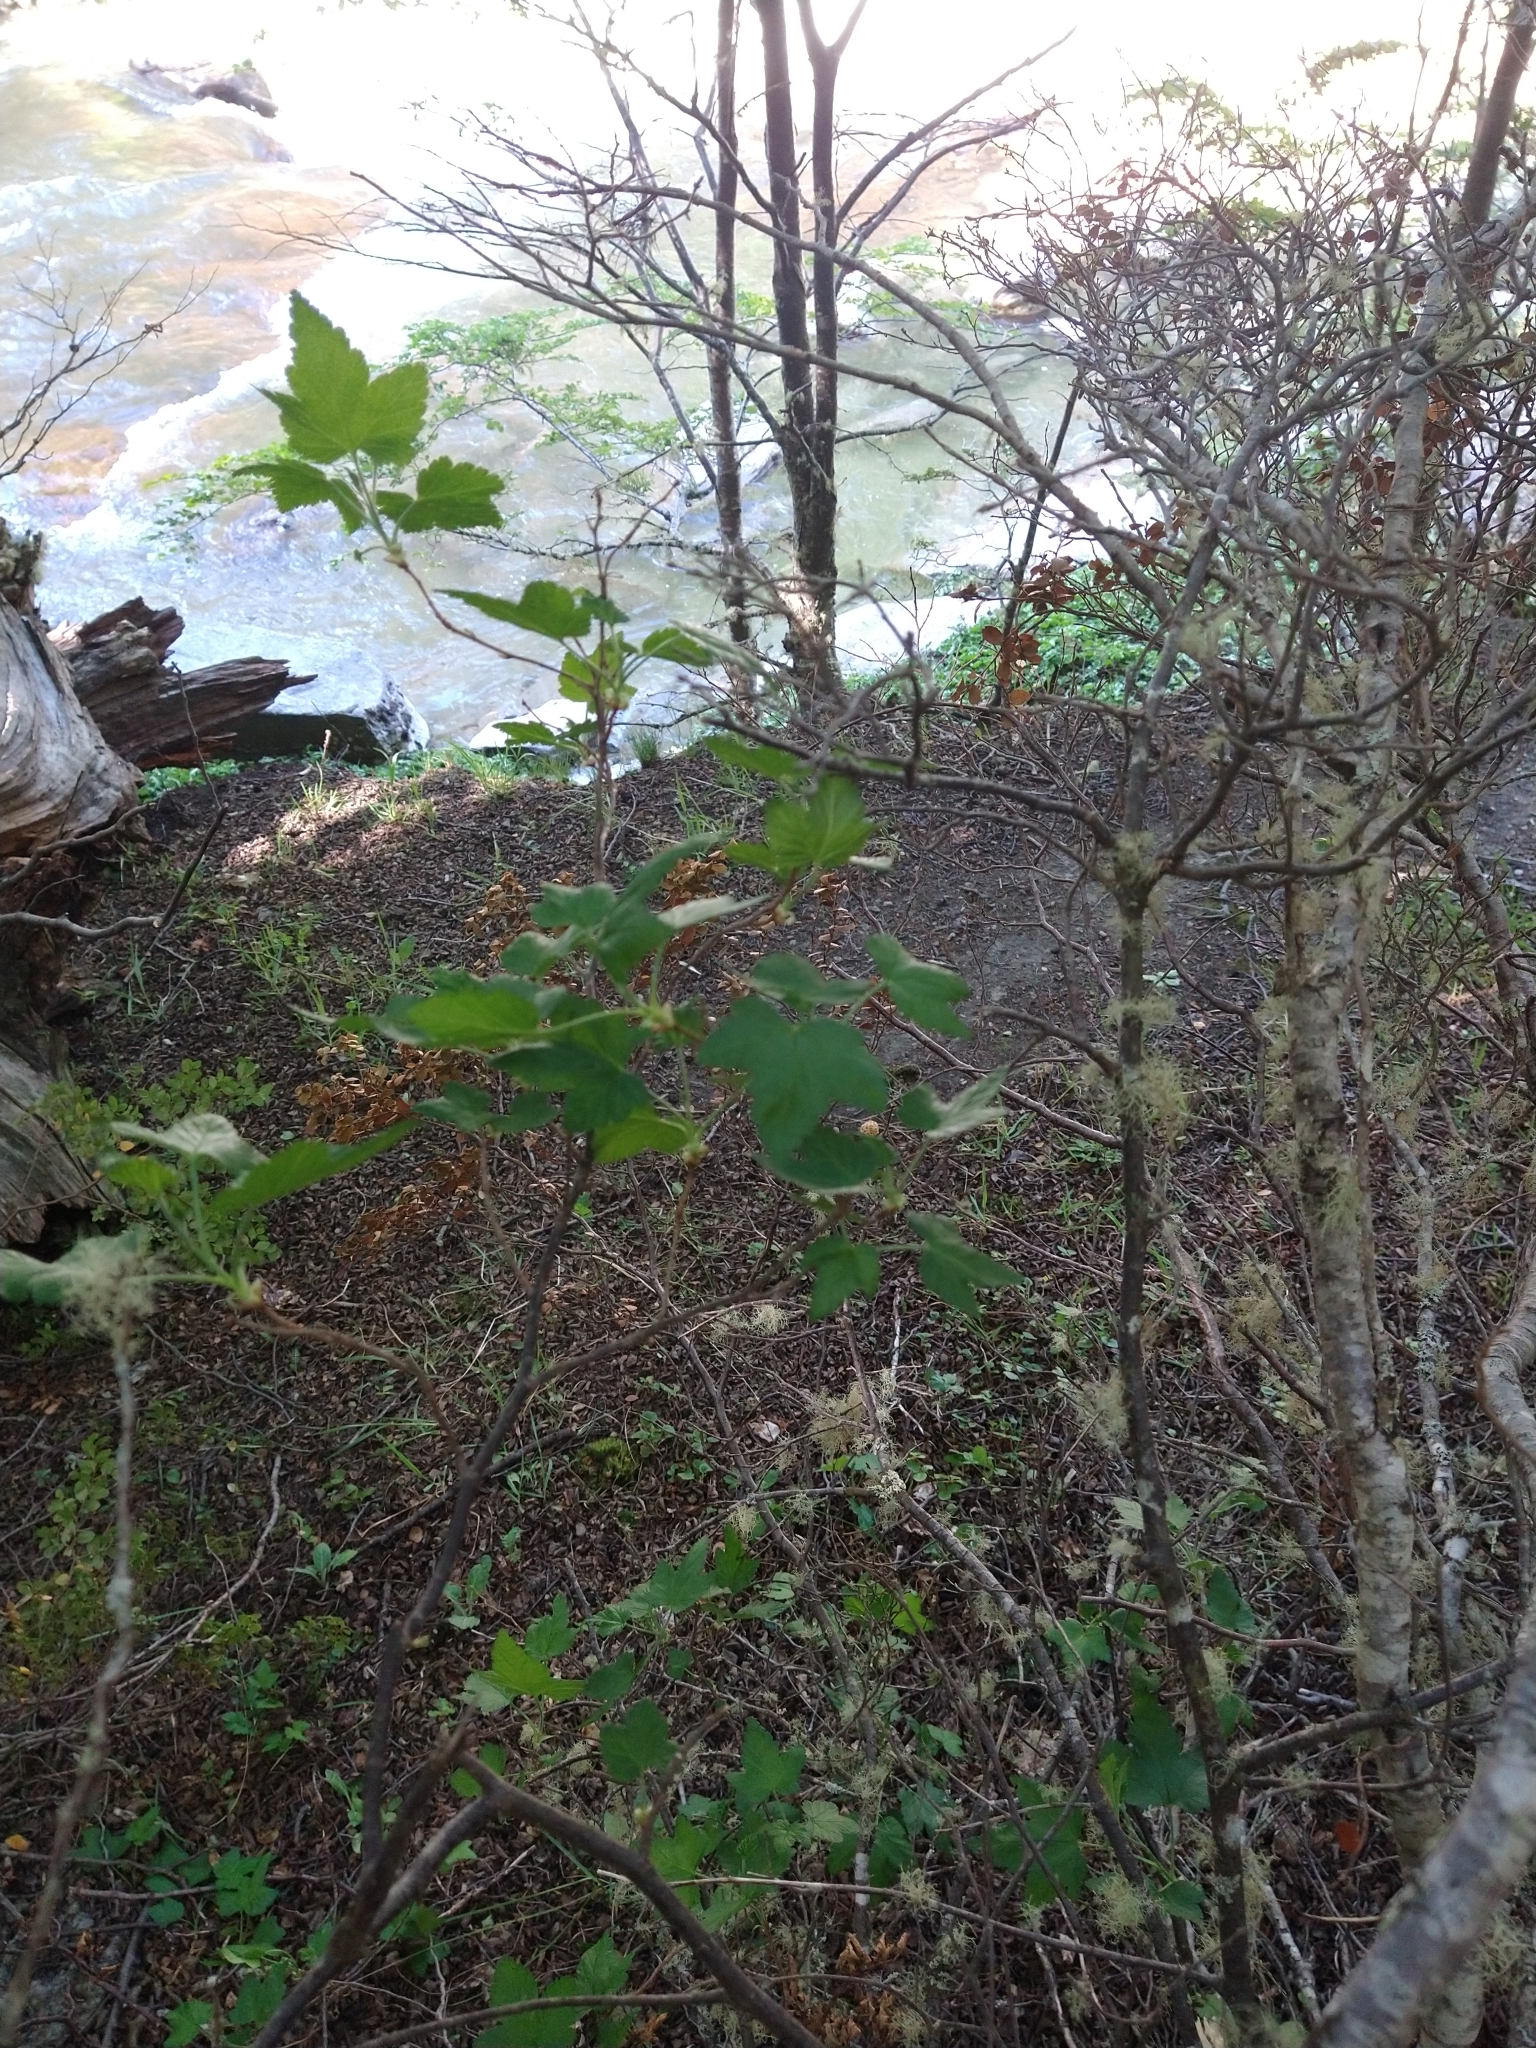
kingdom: Plantae
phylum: Tracheophyta
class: Magnoliopsida
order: Saxifragales
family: Grossulariaceae
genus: Ribes
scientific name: Ribes magellanicum
